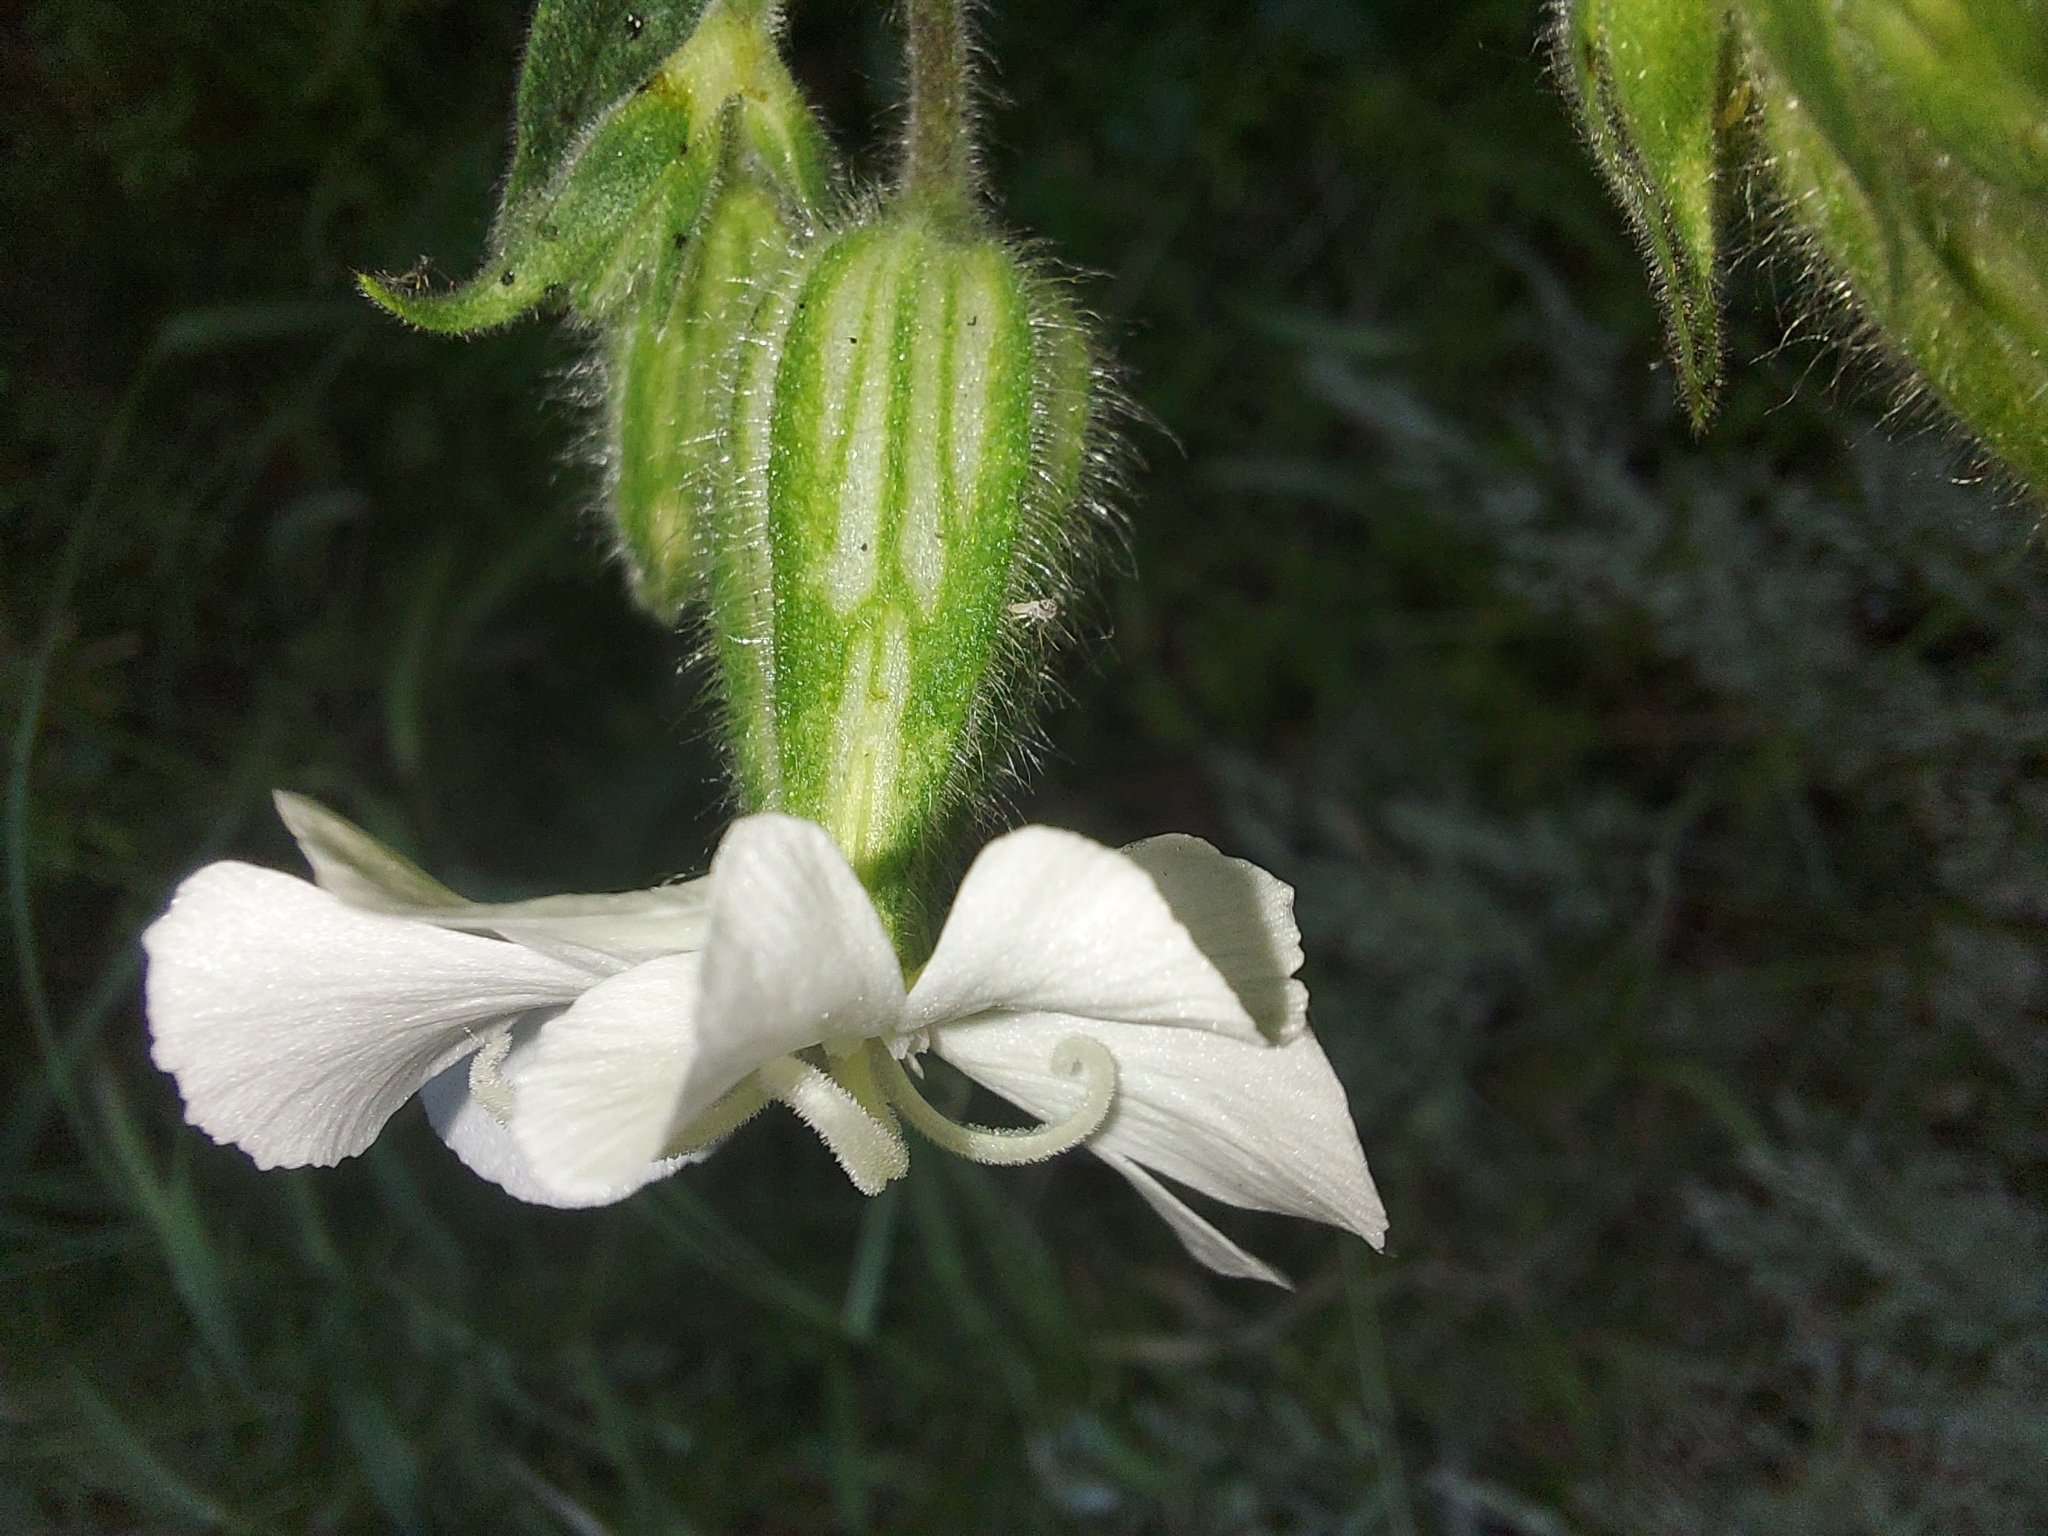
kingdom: Plantae
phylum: Tracheophyta
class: Magnoliopsida
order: Caryophyllales
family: Caryophyllaceae
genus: Silene
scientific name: Silene latifolia
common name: White campion
